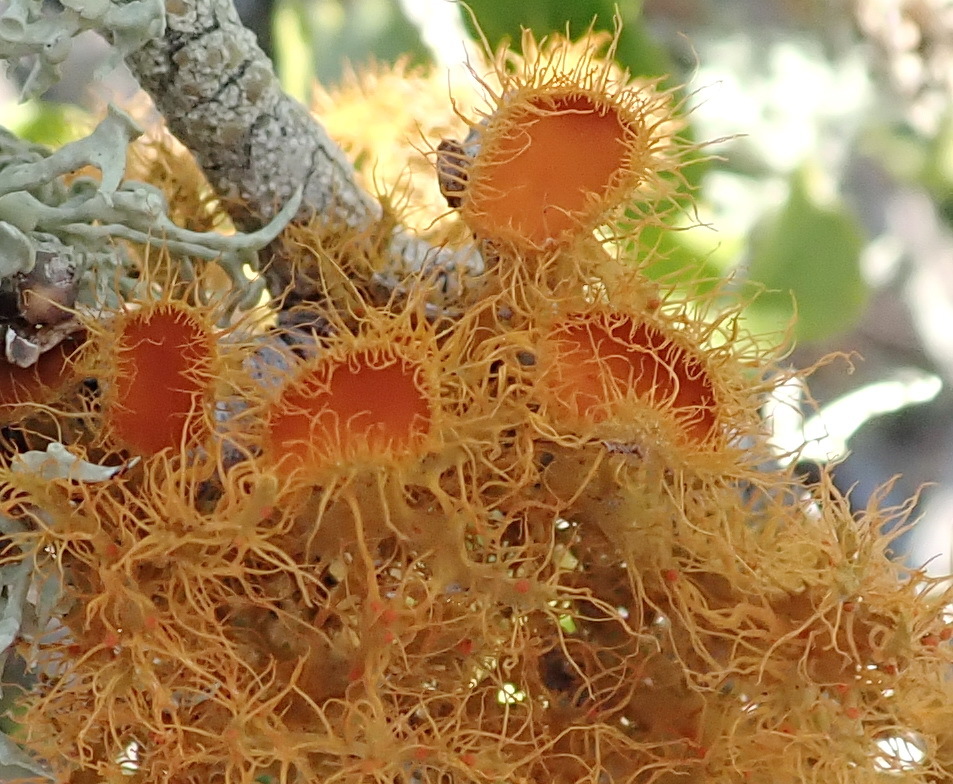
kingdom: Fungi
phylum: Ascomycota
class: Lecanoromycetes
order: Teloschistales
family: Teloschistaceae
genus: Teloschistes
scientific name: Teloschistes puber
